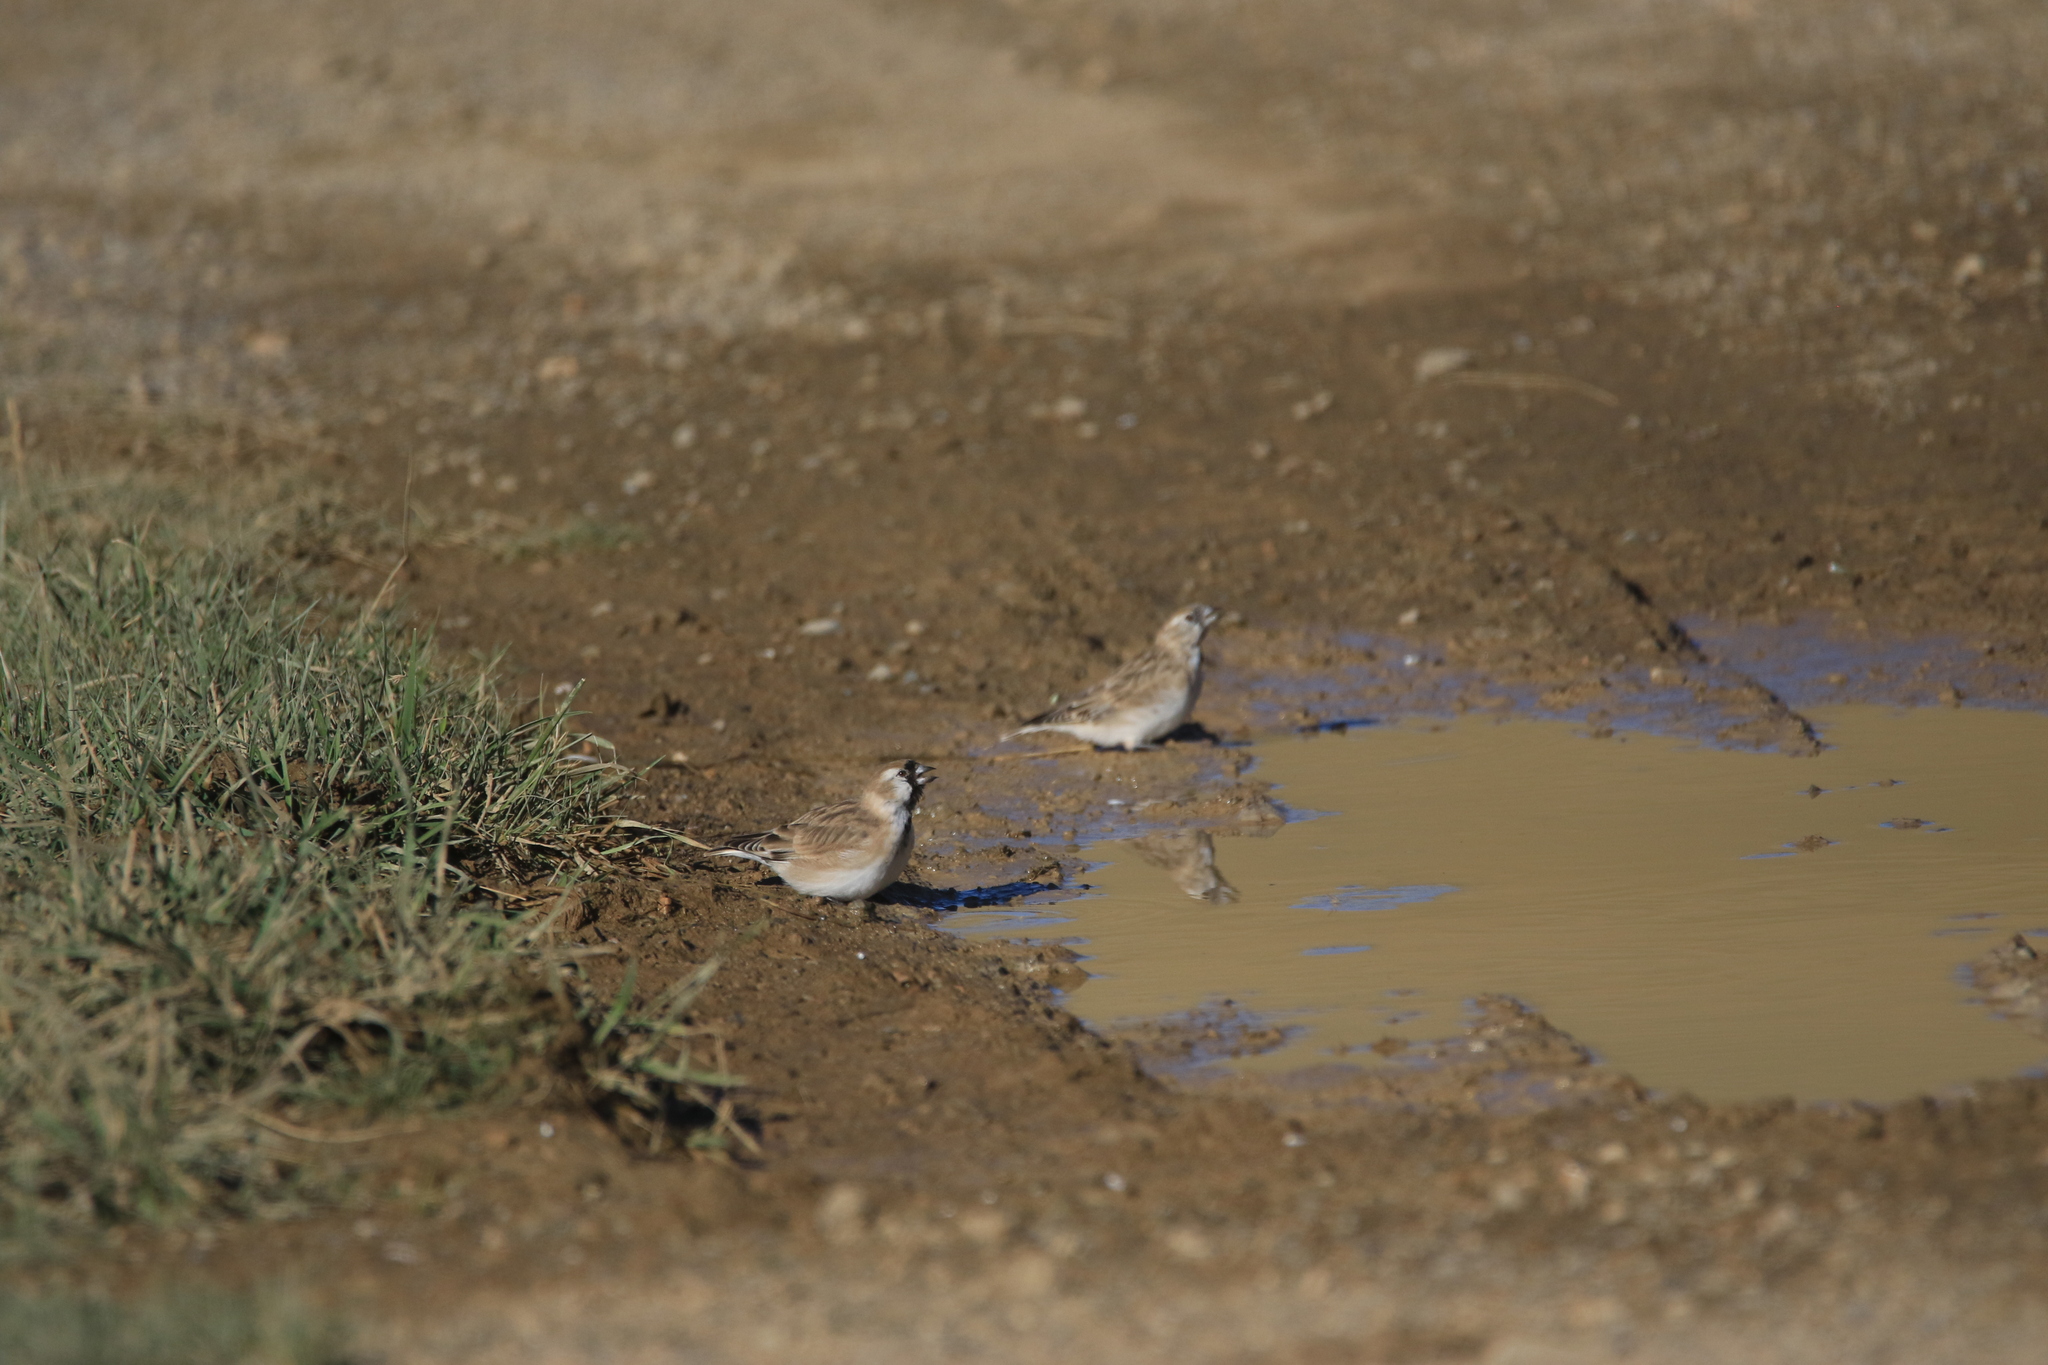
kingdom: Animalia
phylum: Chordata
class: Aves
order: Passeriformes
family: Passeridae
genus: Pyrgilauda
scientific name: Pyrgilauda davidiana
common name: Pere david's snowfinch
